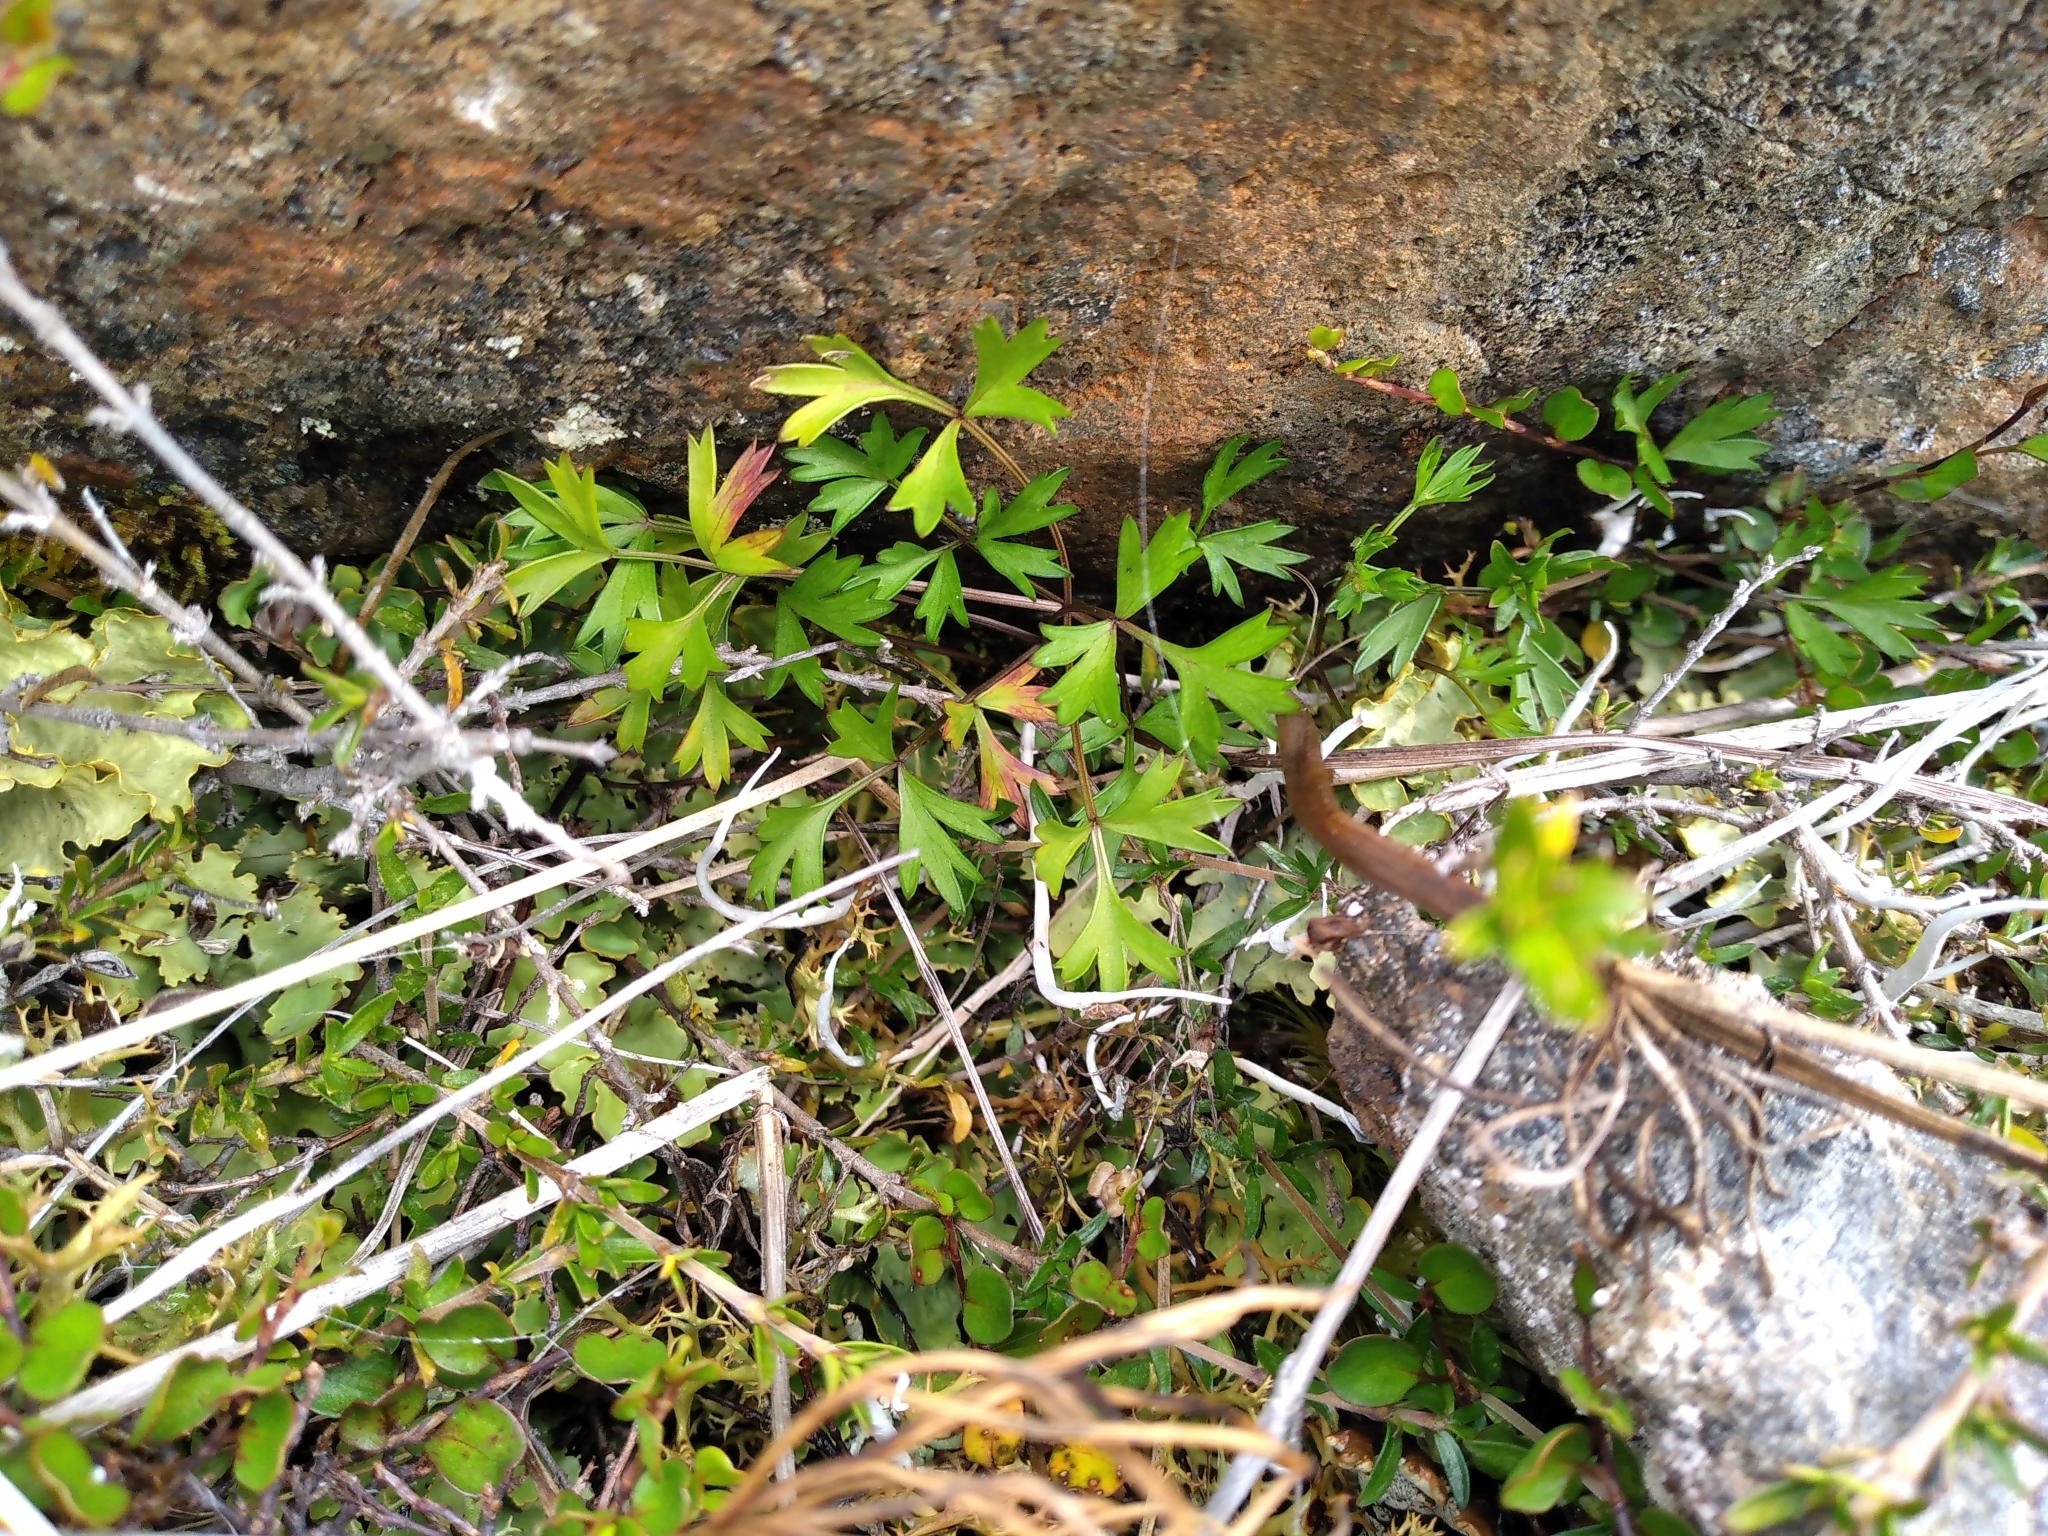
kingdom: Plantae
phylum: Tracheophyta
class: Magnoliopsida
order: Ranunculales
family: Ranunculaceae
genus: Ranunculus
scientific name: Ranunculus verticillatus
